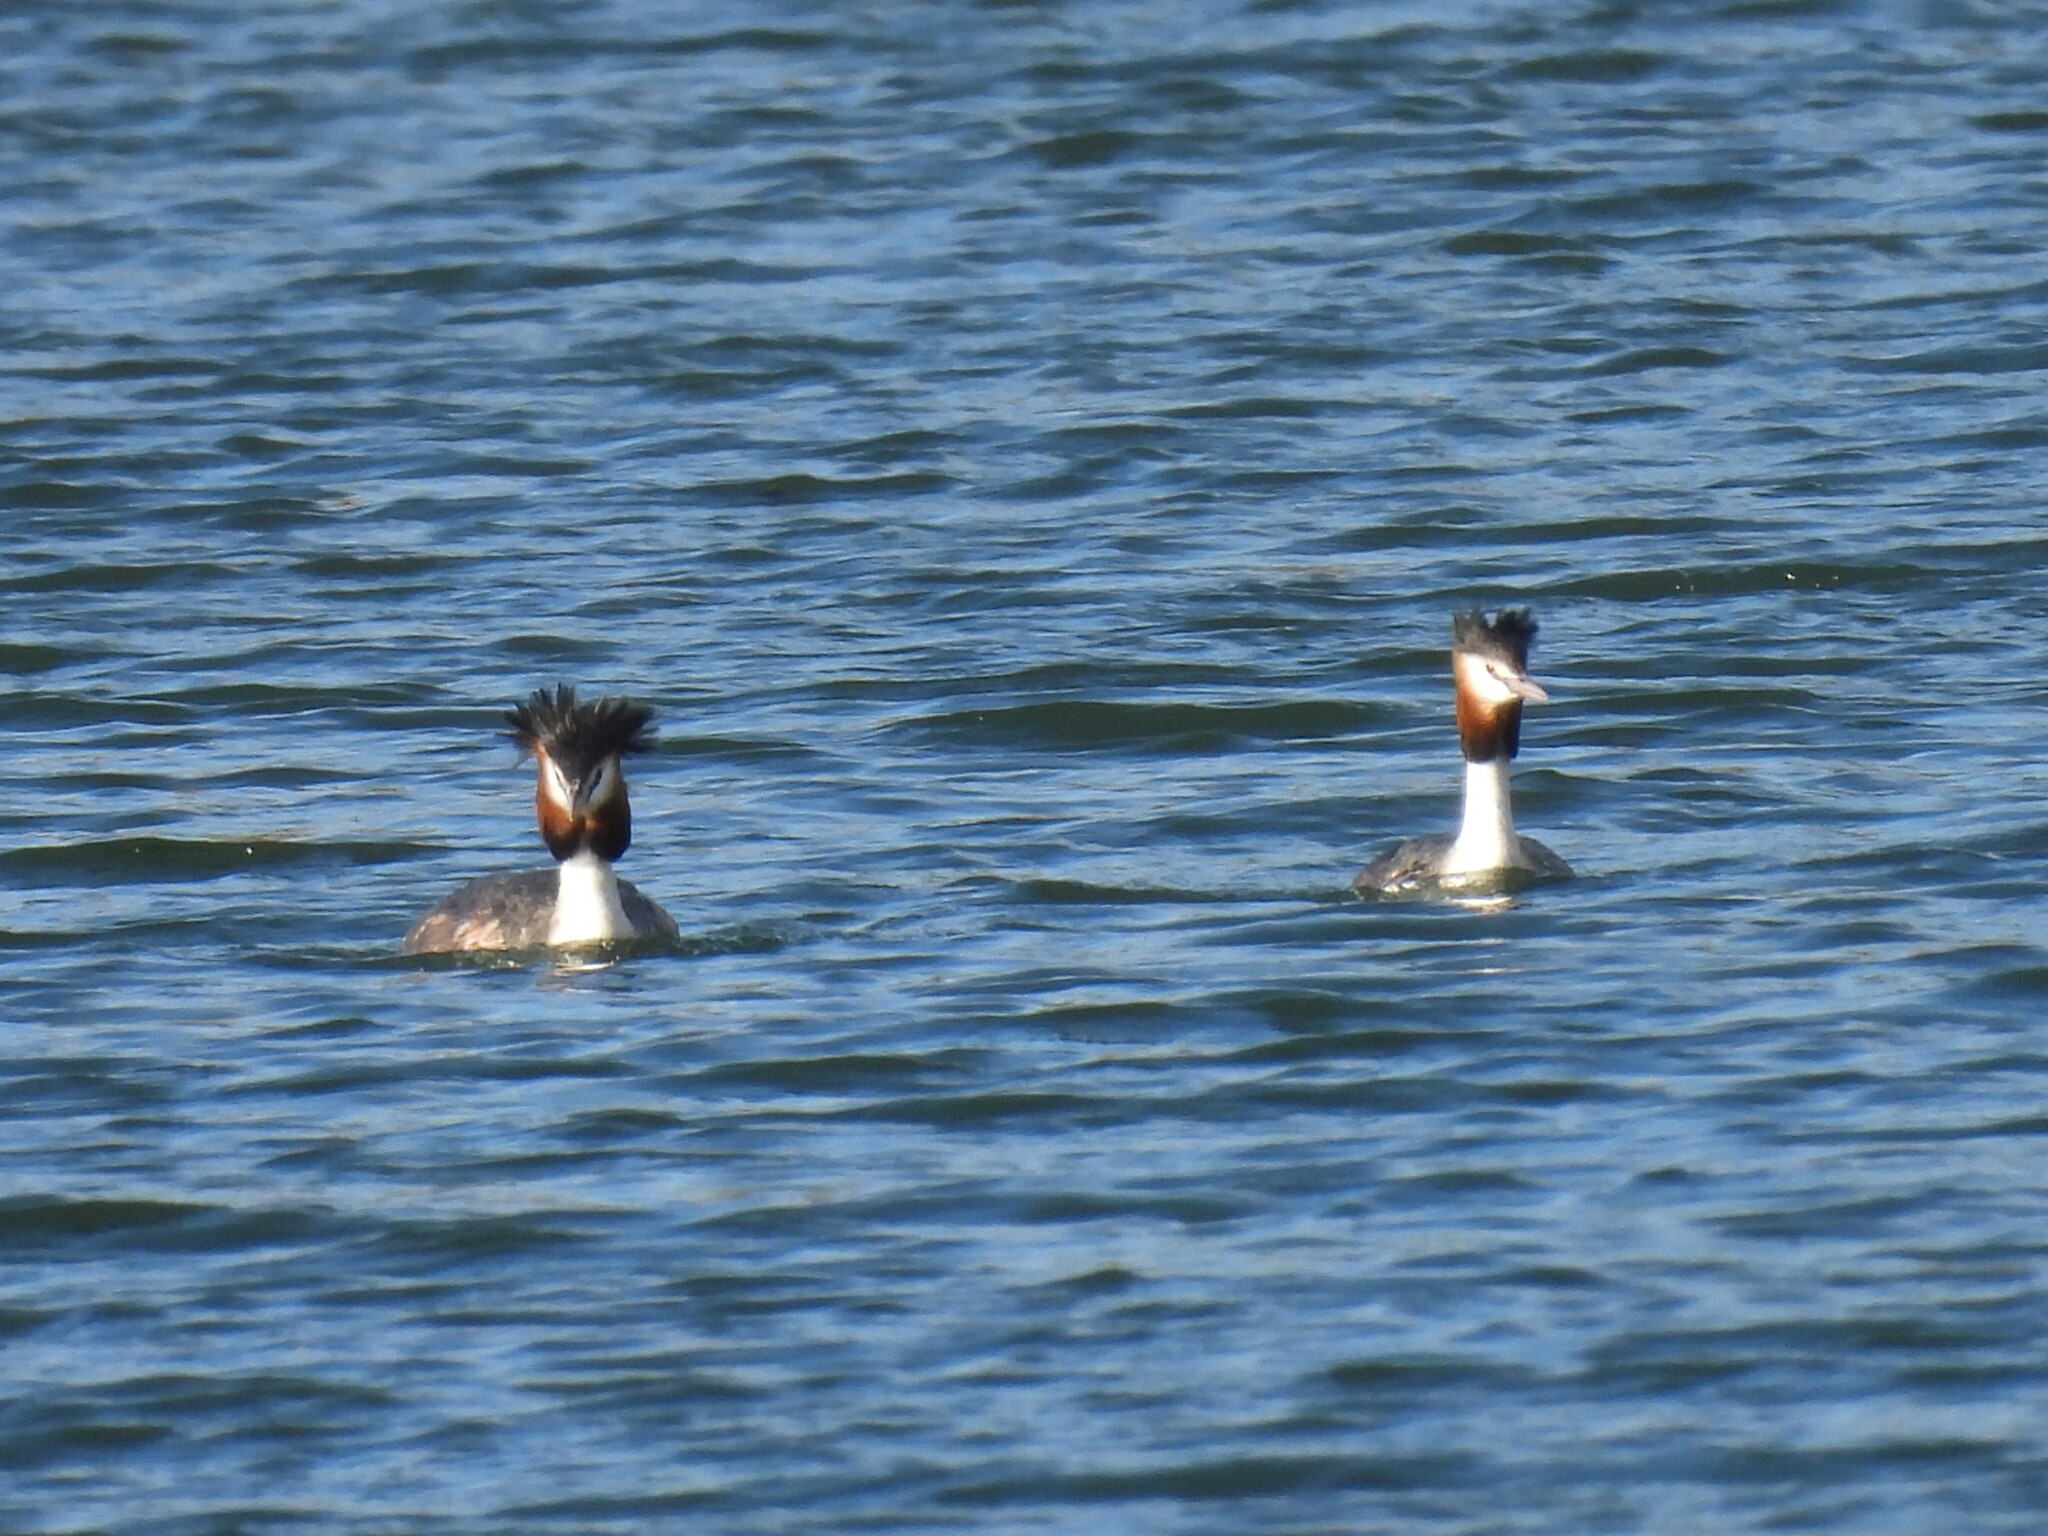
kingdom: Animalia
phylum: Chordata
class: Aves
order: Podicipediformes
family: Podicipedidae
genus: Podiceps
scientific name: Podiceps cristatus
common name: Great crested grebe
